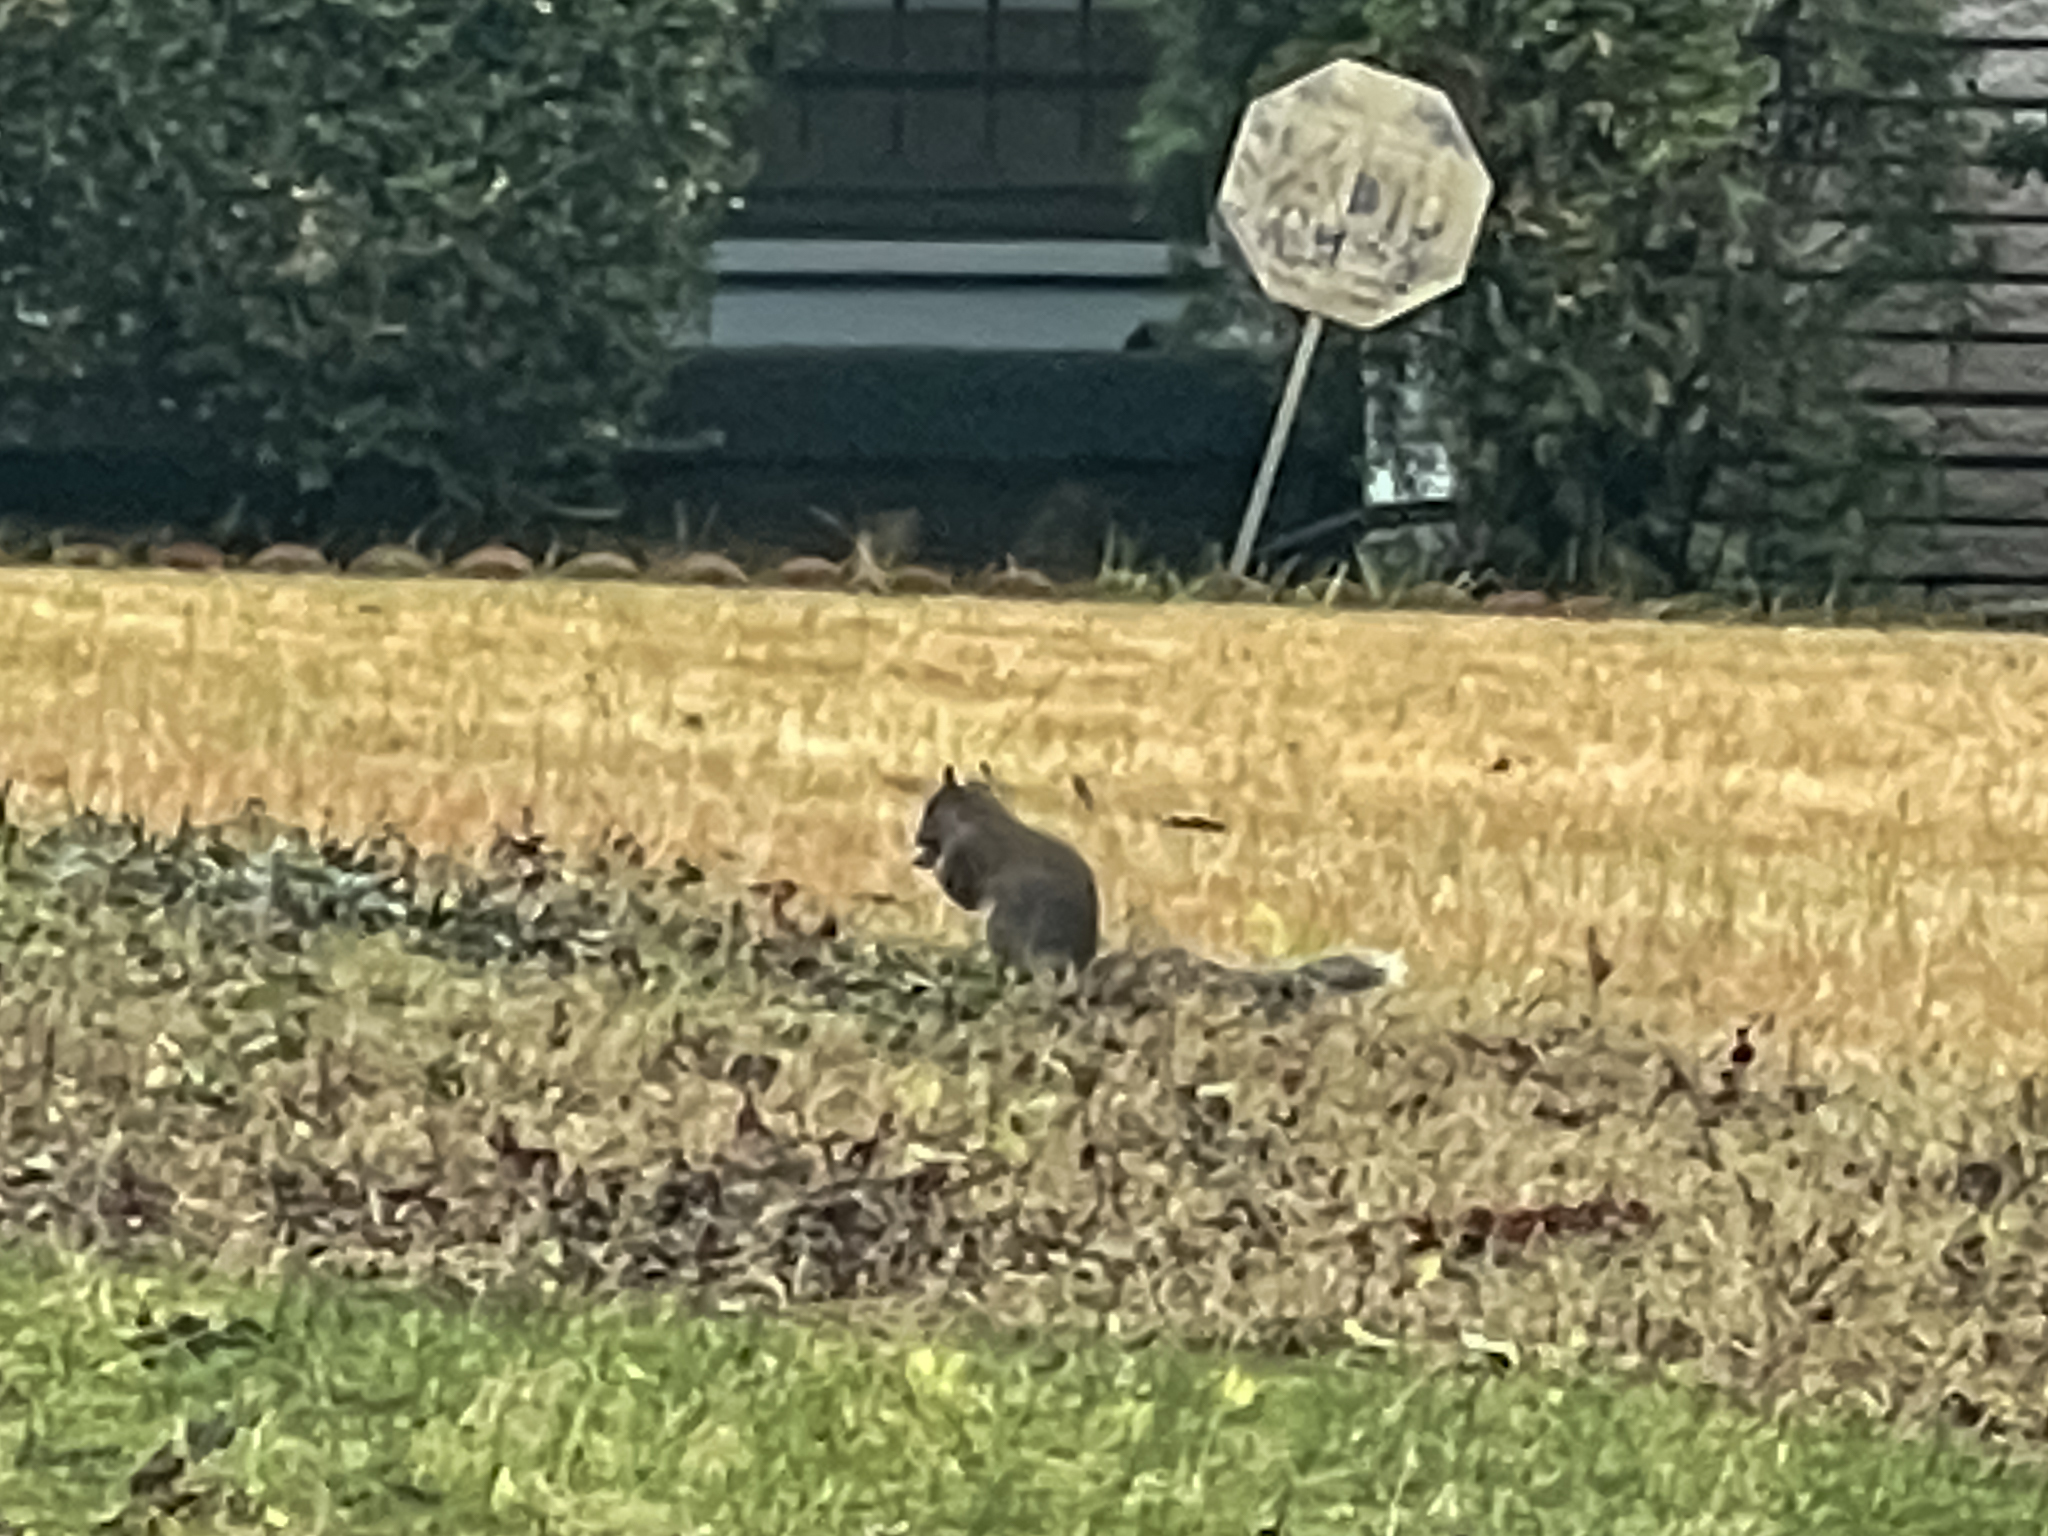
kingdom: Animalia
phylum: Chordata
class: Mammalia
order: Rodentia
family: Sciuridae
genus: Sciurus
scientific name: Sciurus carolinensis
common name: Eastern gray squirrel
